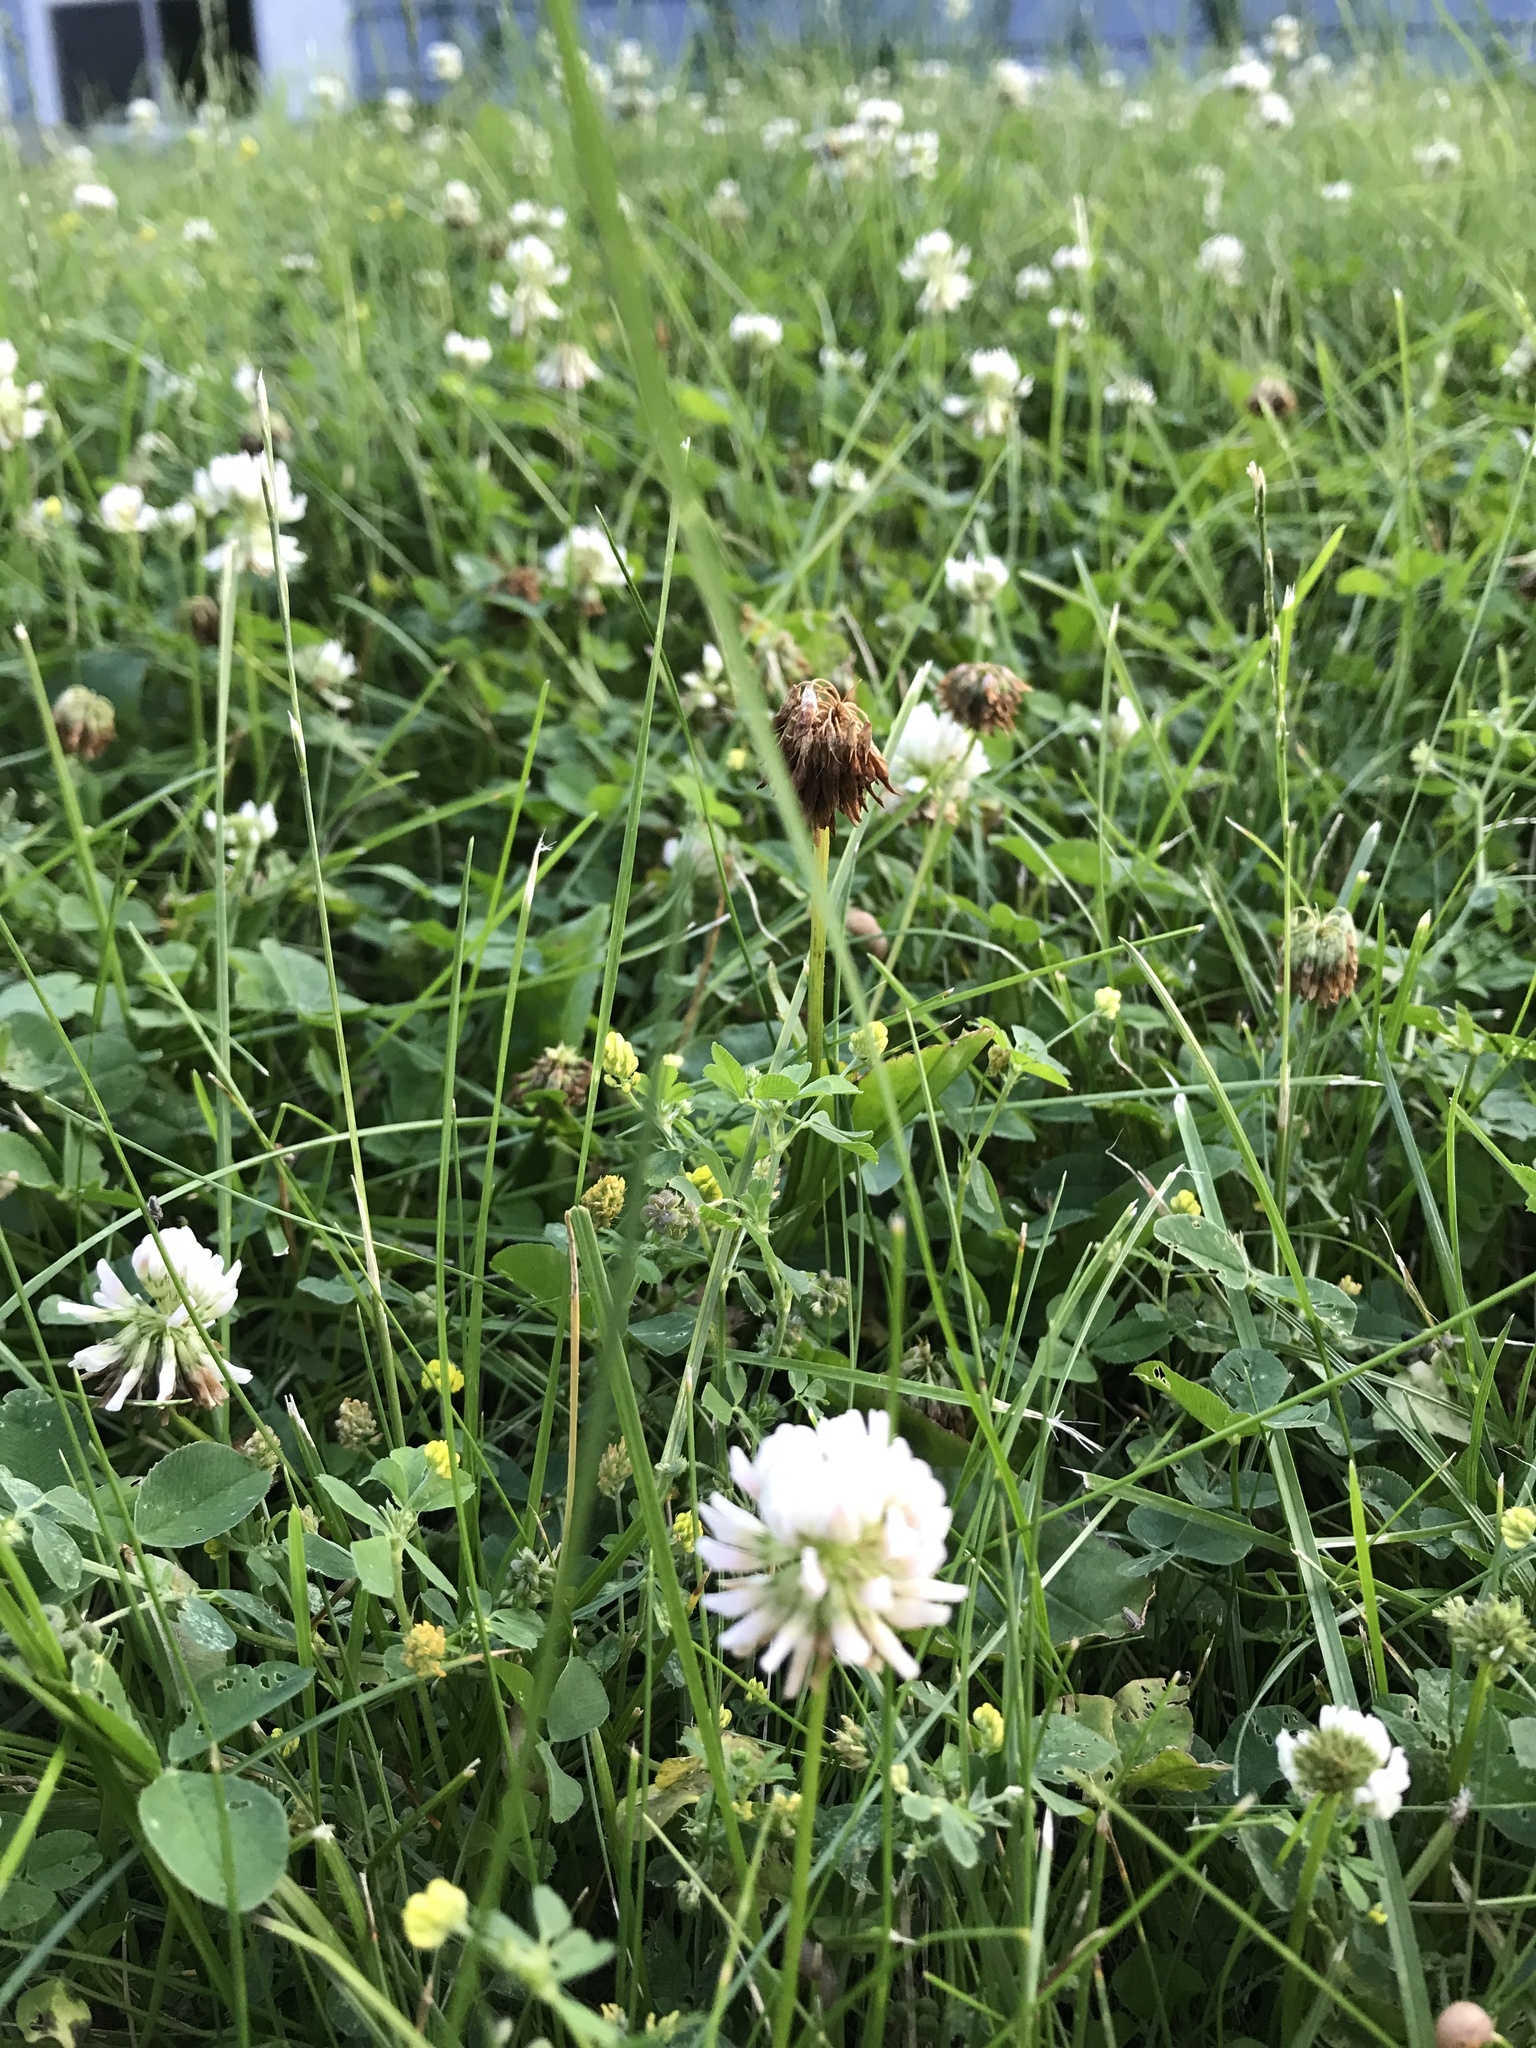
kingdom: Plantae
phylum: Tracheophyta
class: Magnoliopsida
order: Fabales
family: Fabaceae
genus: Trifolium
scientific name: Trifolium repens
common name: White clover
